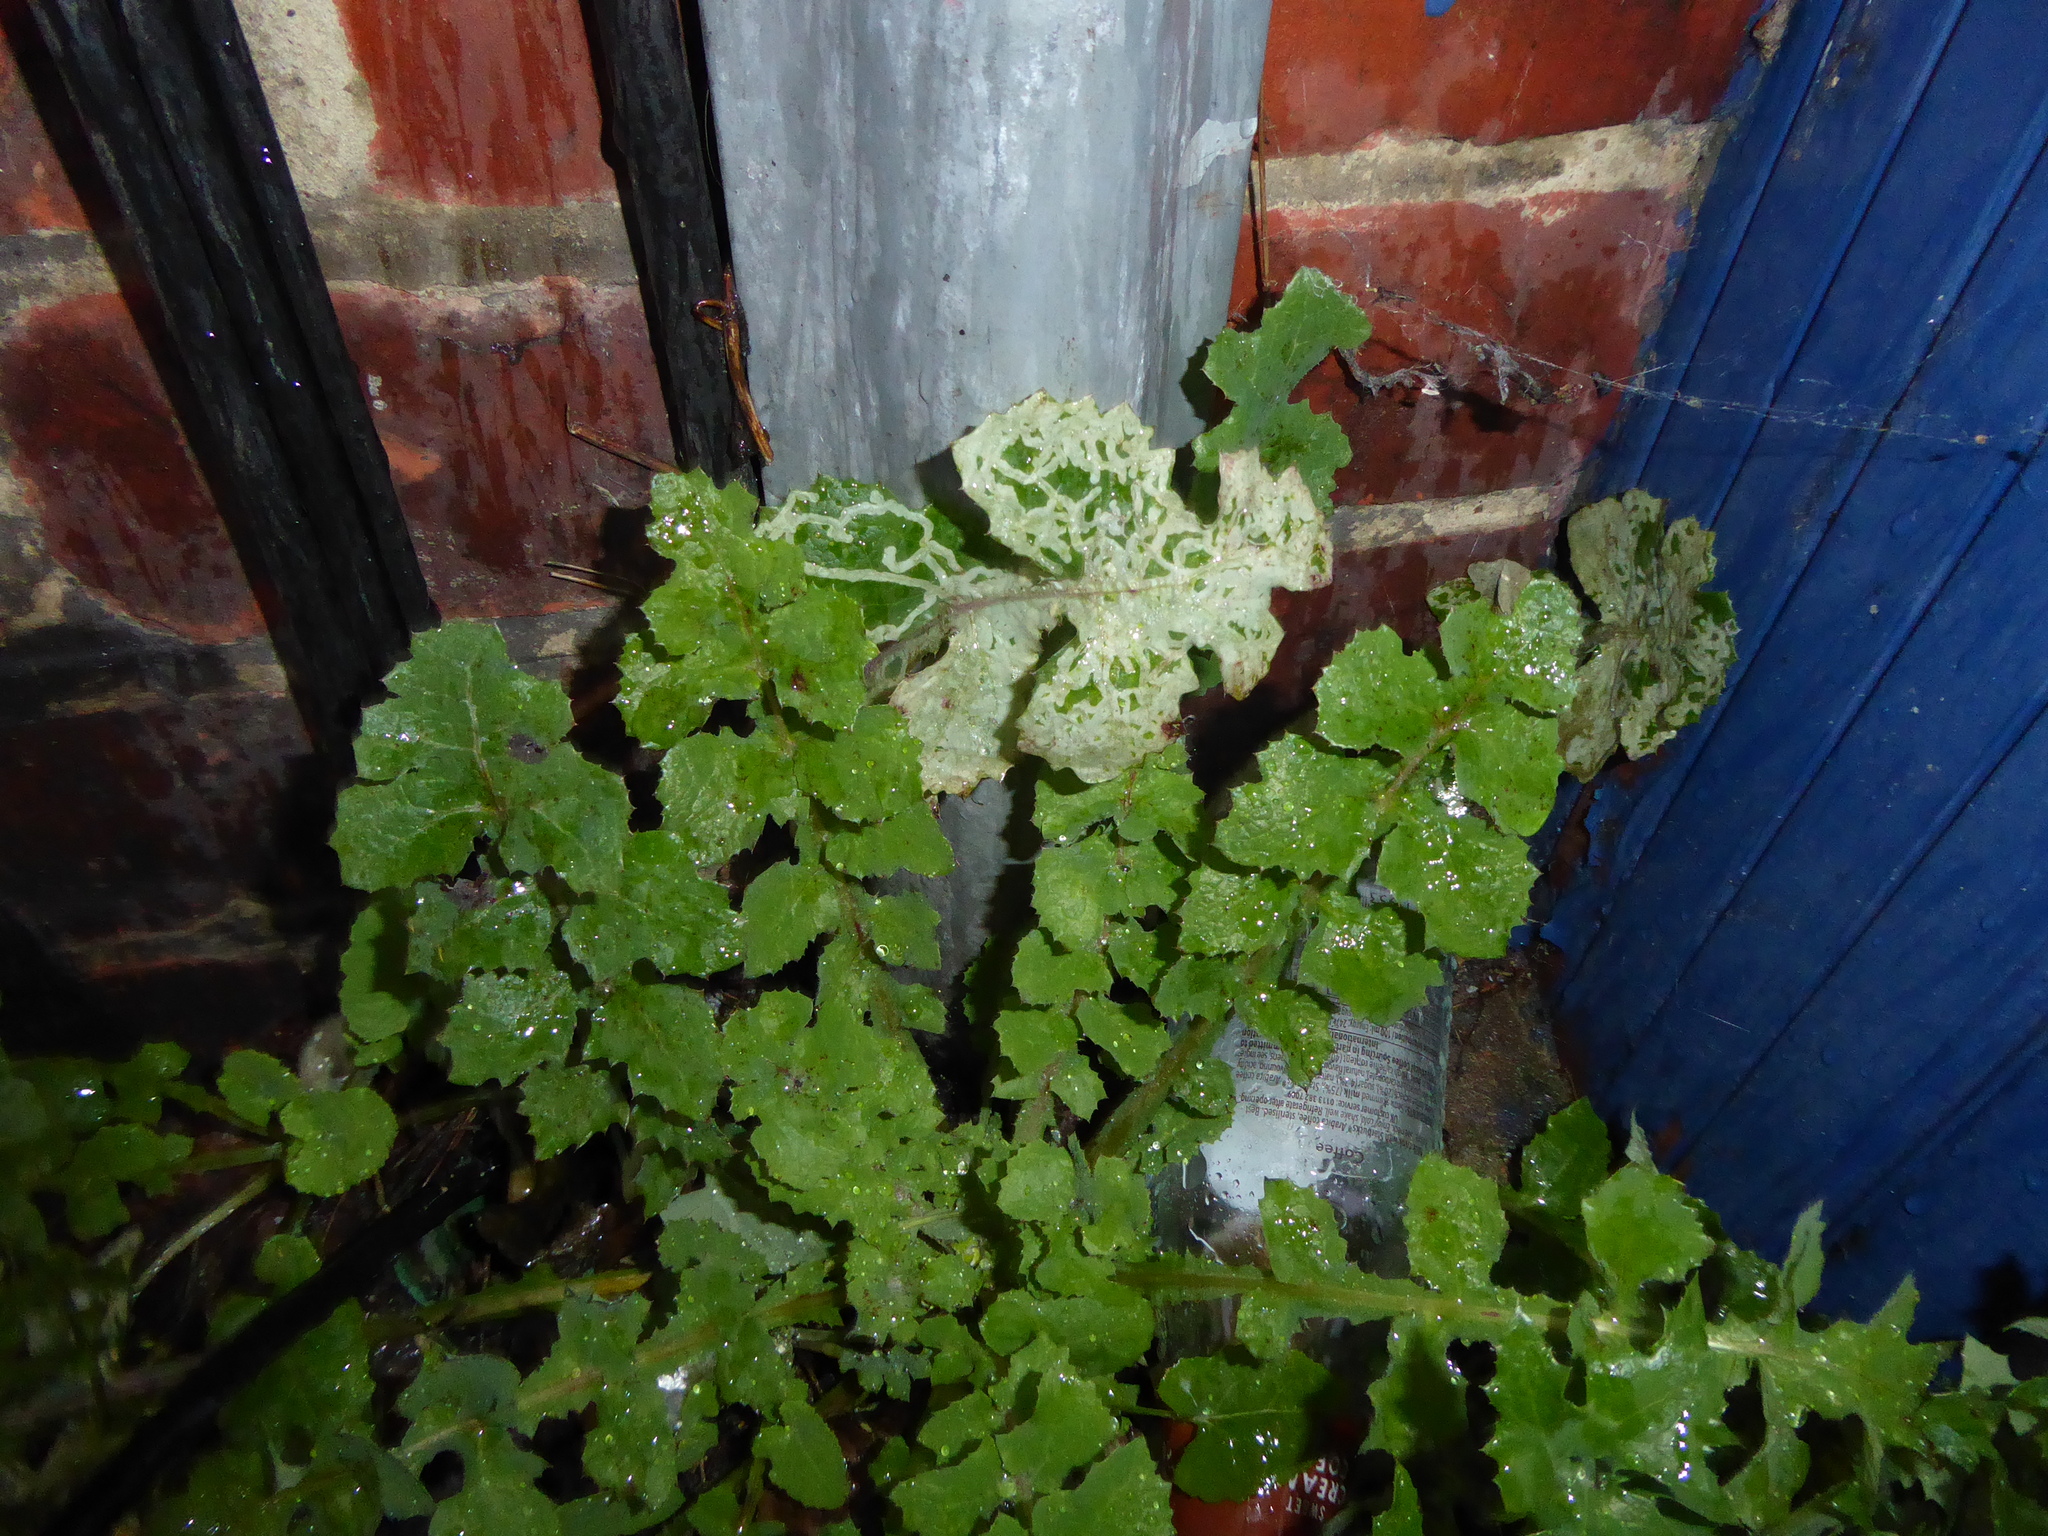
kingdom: Plantae
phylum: Tracheophyta
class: Magnoliopsida
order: Asterales
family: Asteraceae
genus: Sonchus
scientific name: Sonchus oleraceus
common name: Common sowthistle
